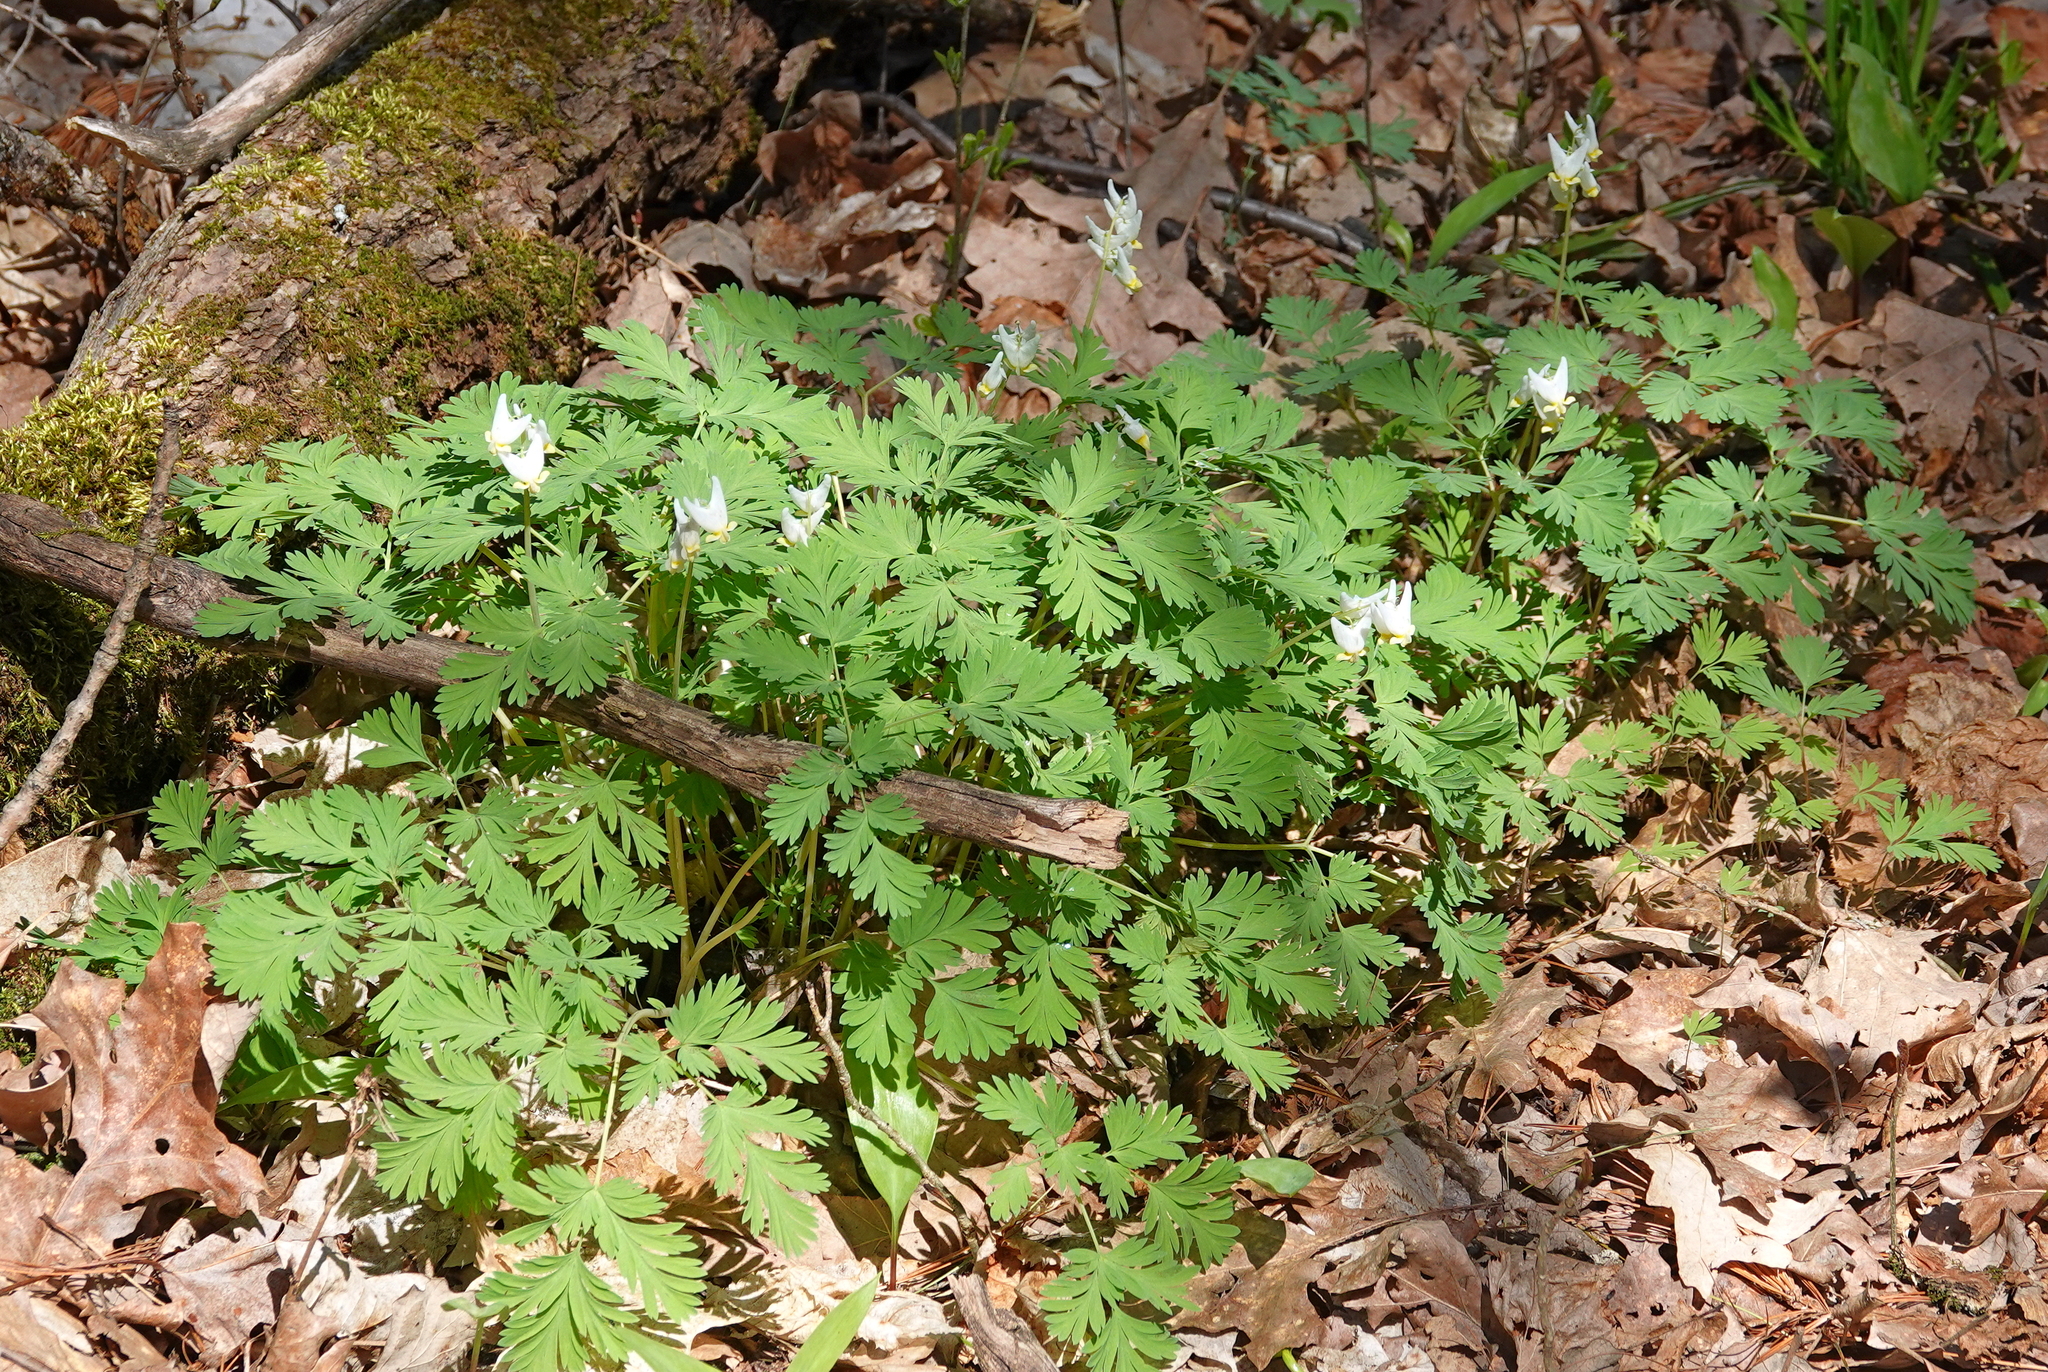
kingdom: Plantae
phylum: Tracheophyta
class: Magnoliopsida
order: Ranunculales
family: Papaveraceae
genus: Dicentra
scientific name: Dicentra cucullaria
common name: Dutchman's breeches
